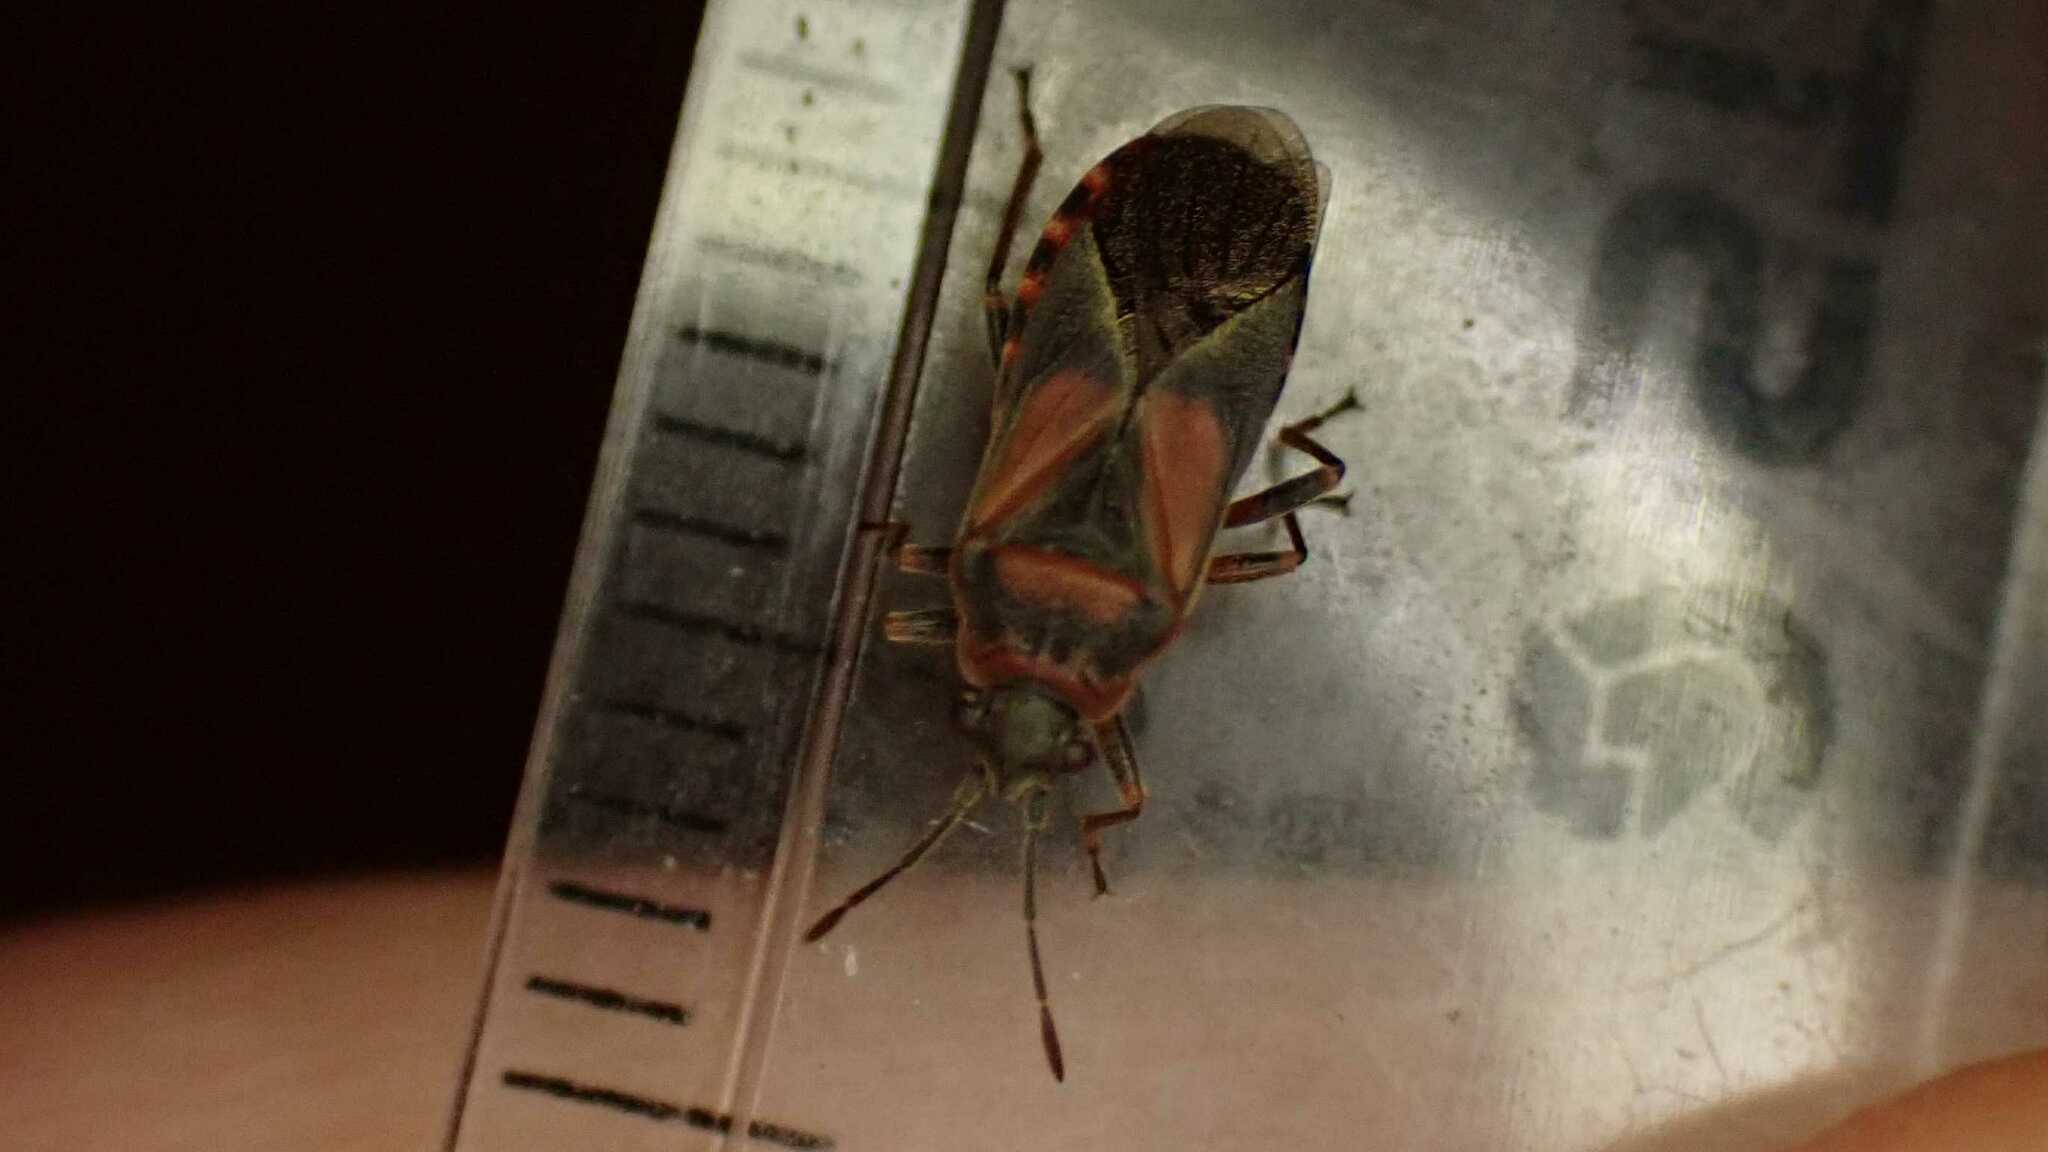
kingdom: Animalia
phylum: Arthropoda
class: Insecta
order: Hemiptera
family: Lygaeidae
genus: Arocatus
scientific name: Arocatus melanocephalus
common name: Lygaeid bug
